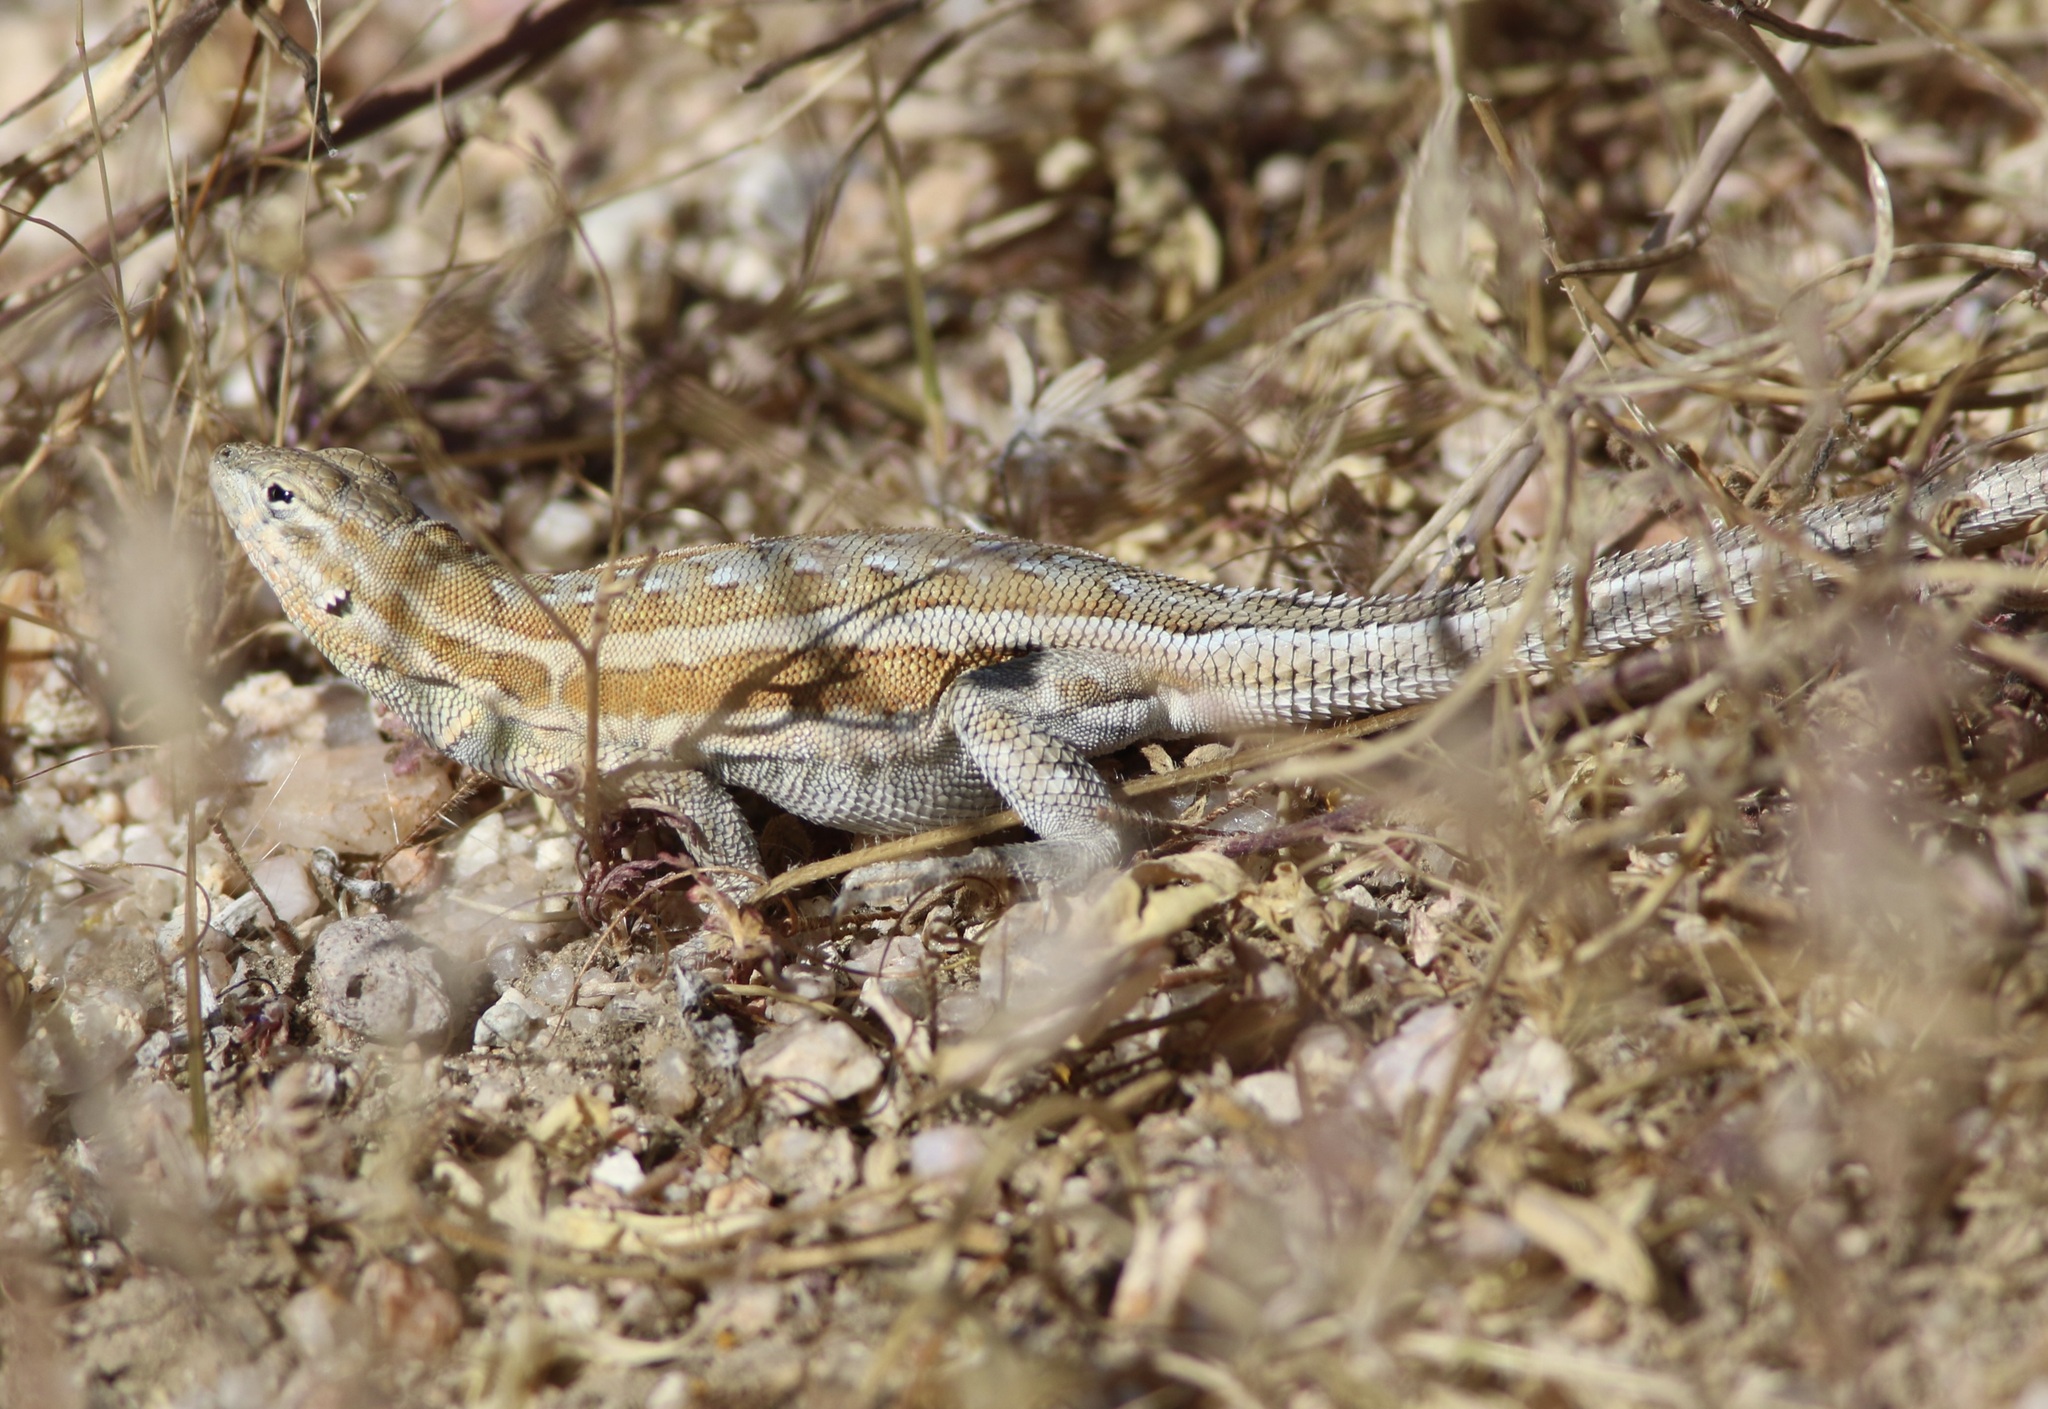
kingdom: Animalia
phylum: Chordata
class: Squamata
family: Phrynosomatidae
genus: Uta
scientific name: Uta stansburiana
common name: Side-blotched lizard
